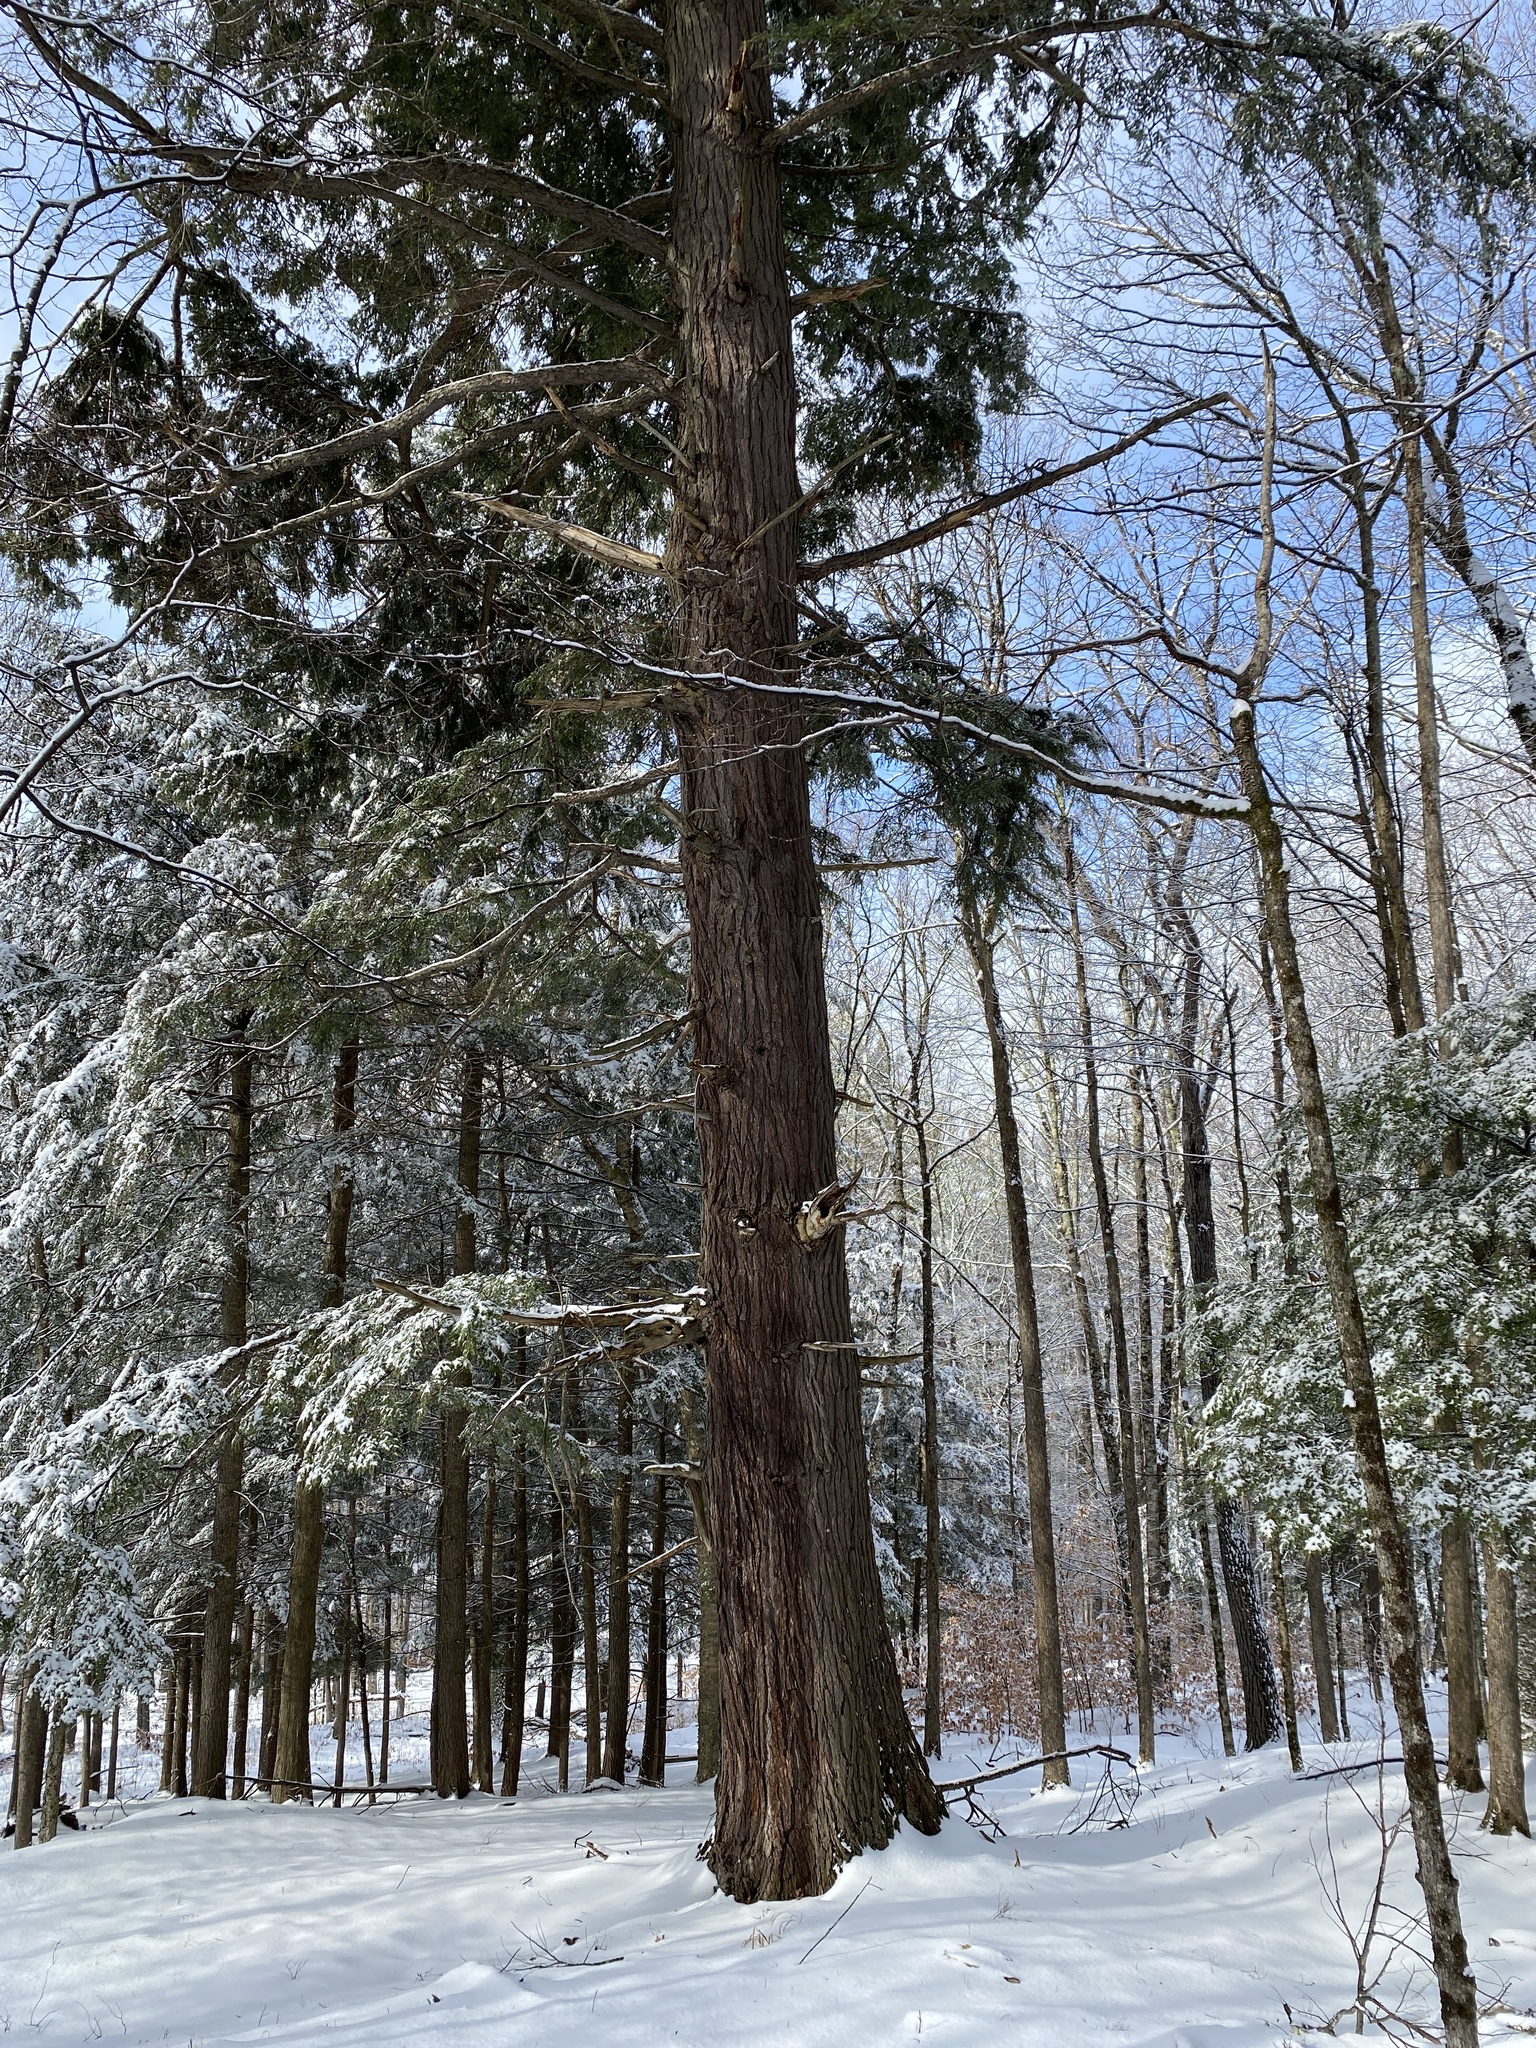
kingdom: Plantae
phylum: Tracheophyta
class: Pinopsida
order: Pinales
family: Pinaceae
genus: Tsuga
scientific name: Tsuga canadensis
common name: Eastern hemlock
